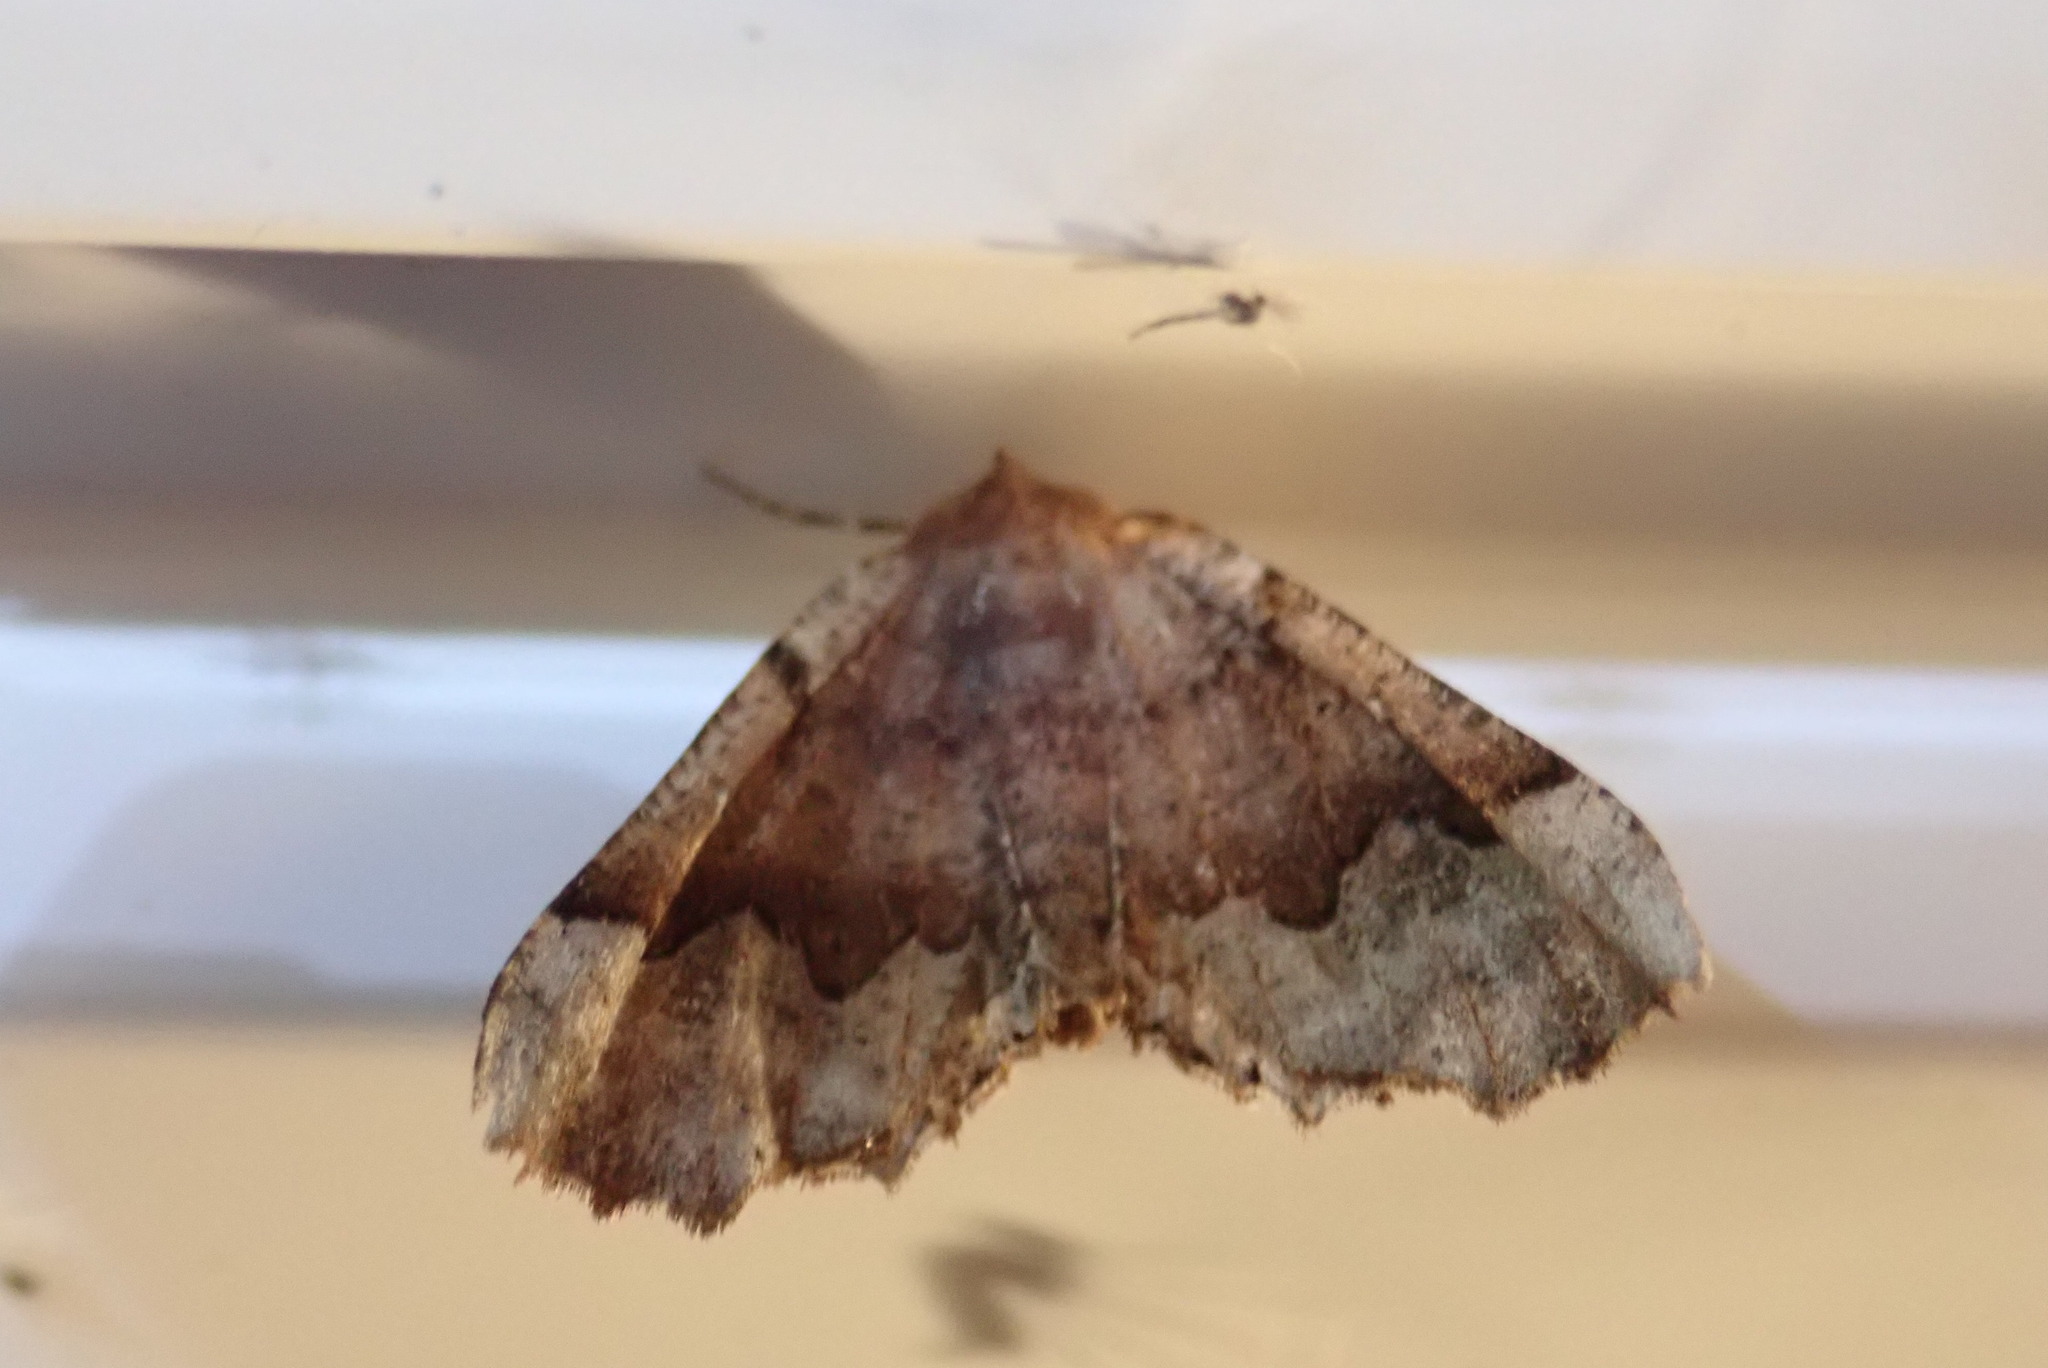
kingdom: Animalia
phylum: Arthropoda
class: Insecta
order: Lepidoptera
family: Geometridae
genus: Pero
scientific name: Pero morrisonaria
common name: Morrison's pero
